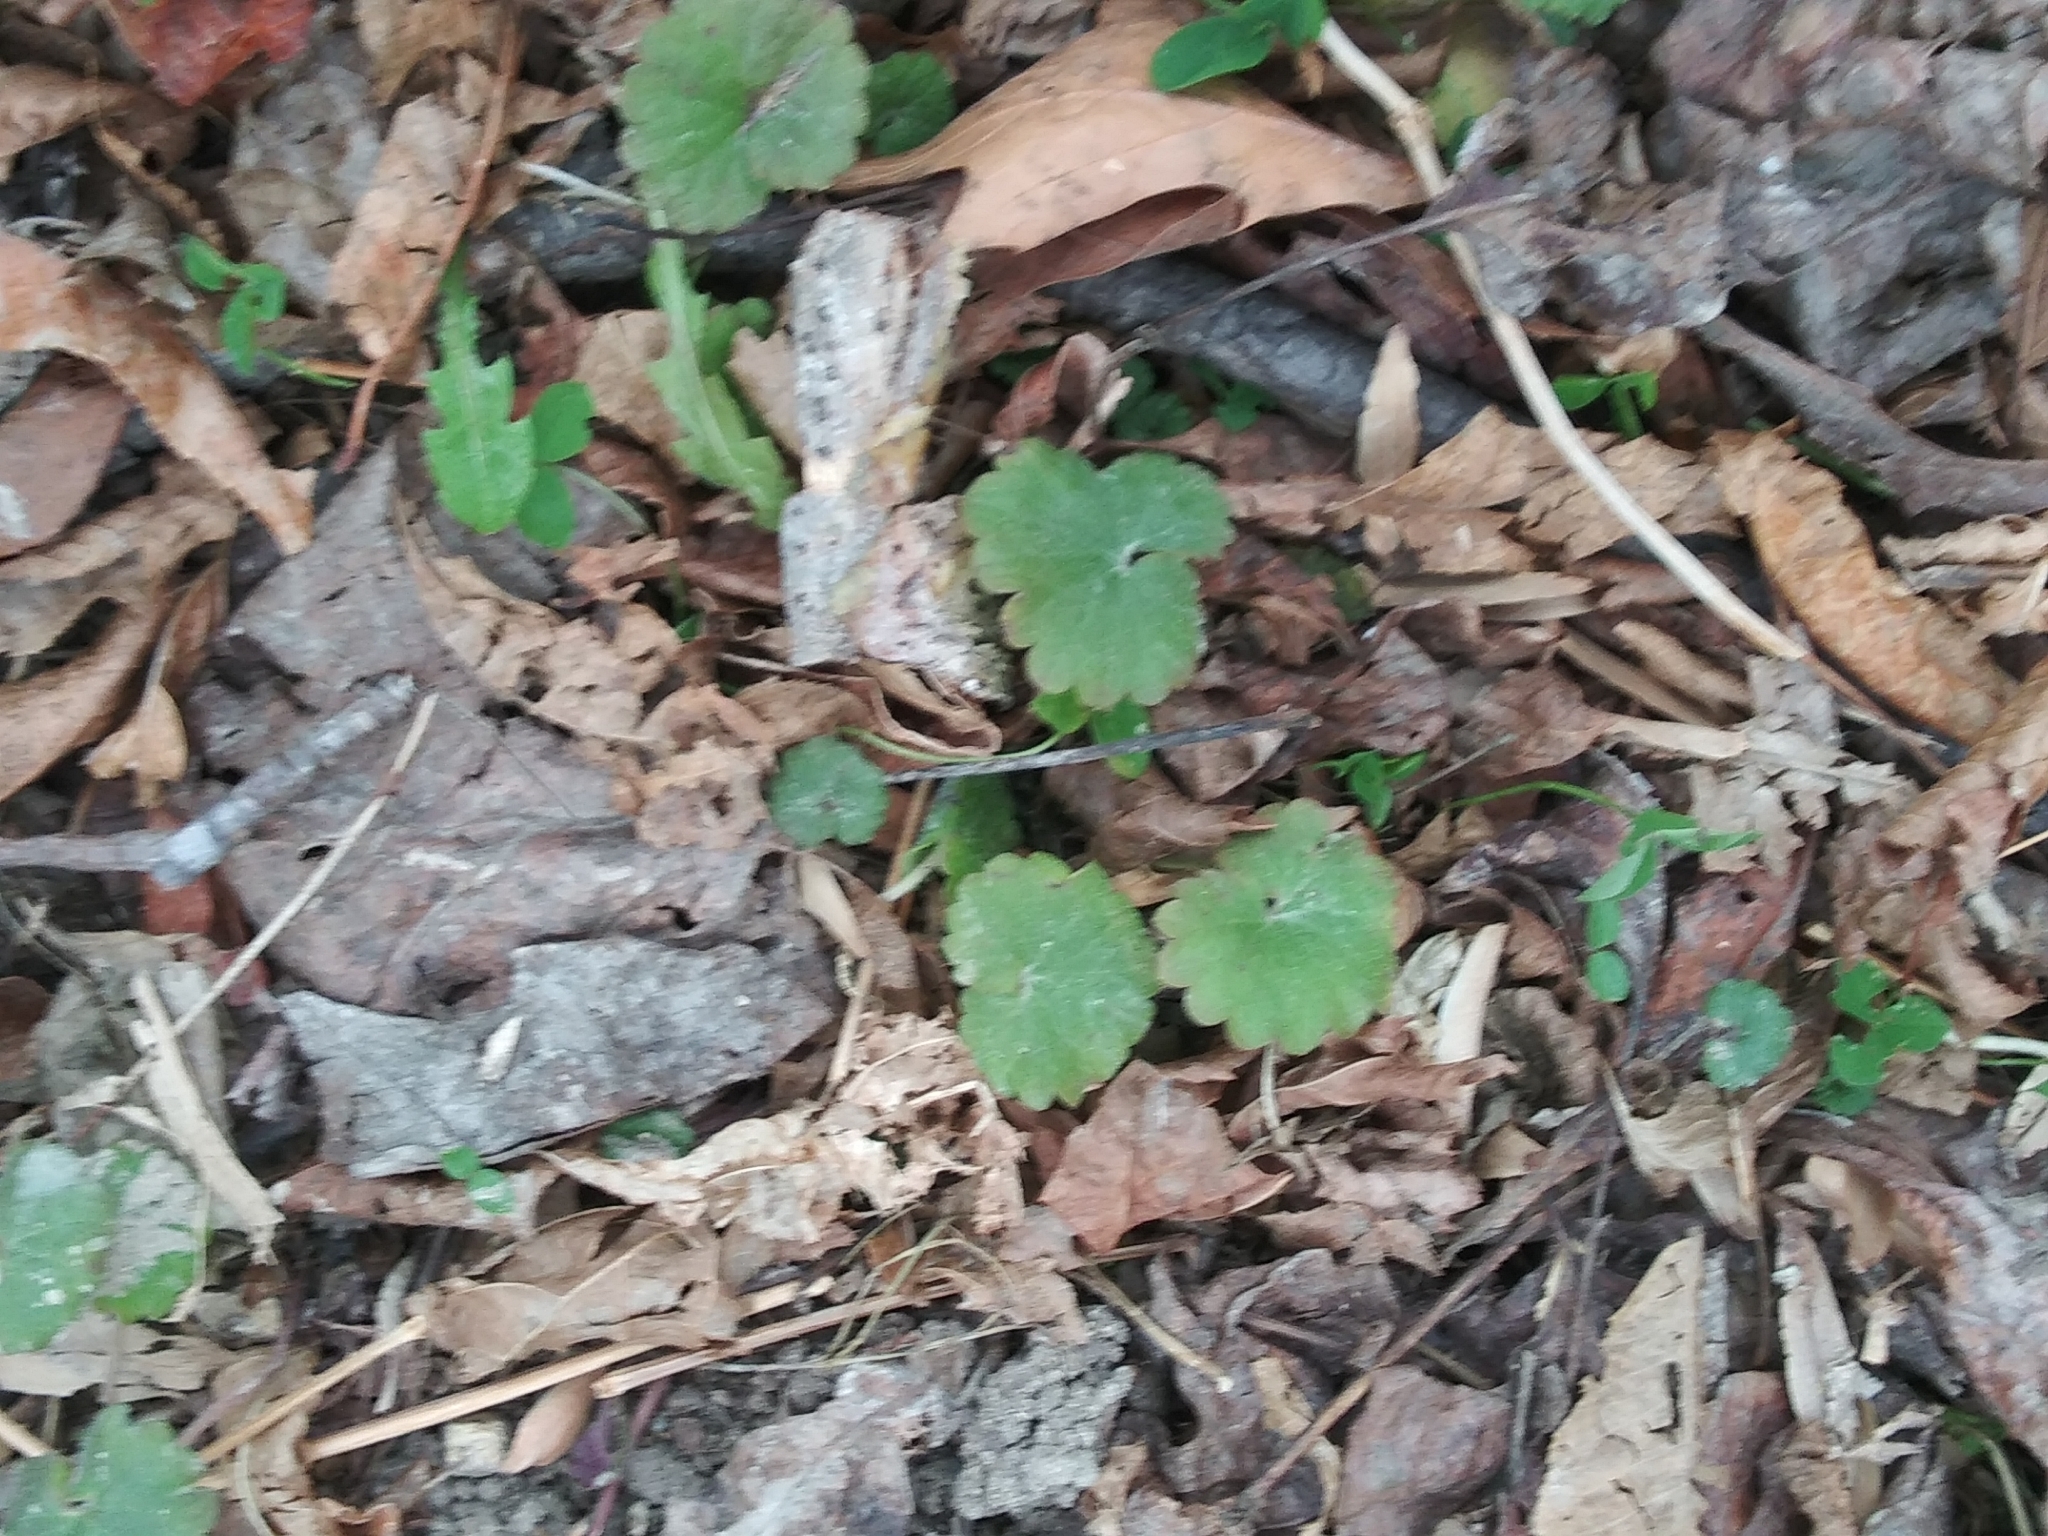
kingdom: Plantae
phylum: Tracheophyta
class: Magnoliopsida
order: Lamiales
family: Lamiaceae
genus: Glechoma
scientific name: Glechoma hederacea
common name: Ground ivy
